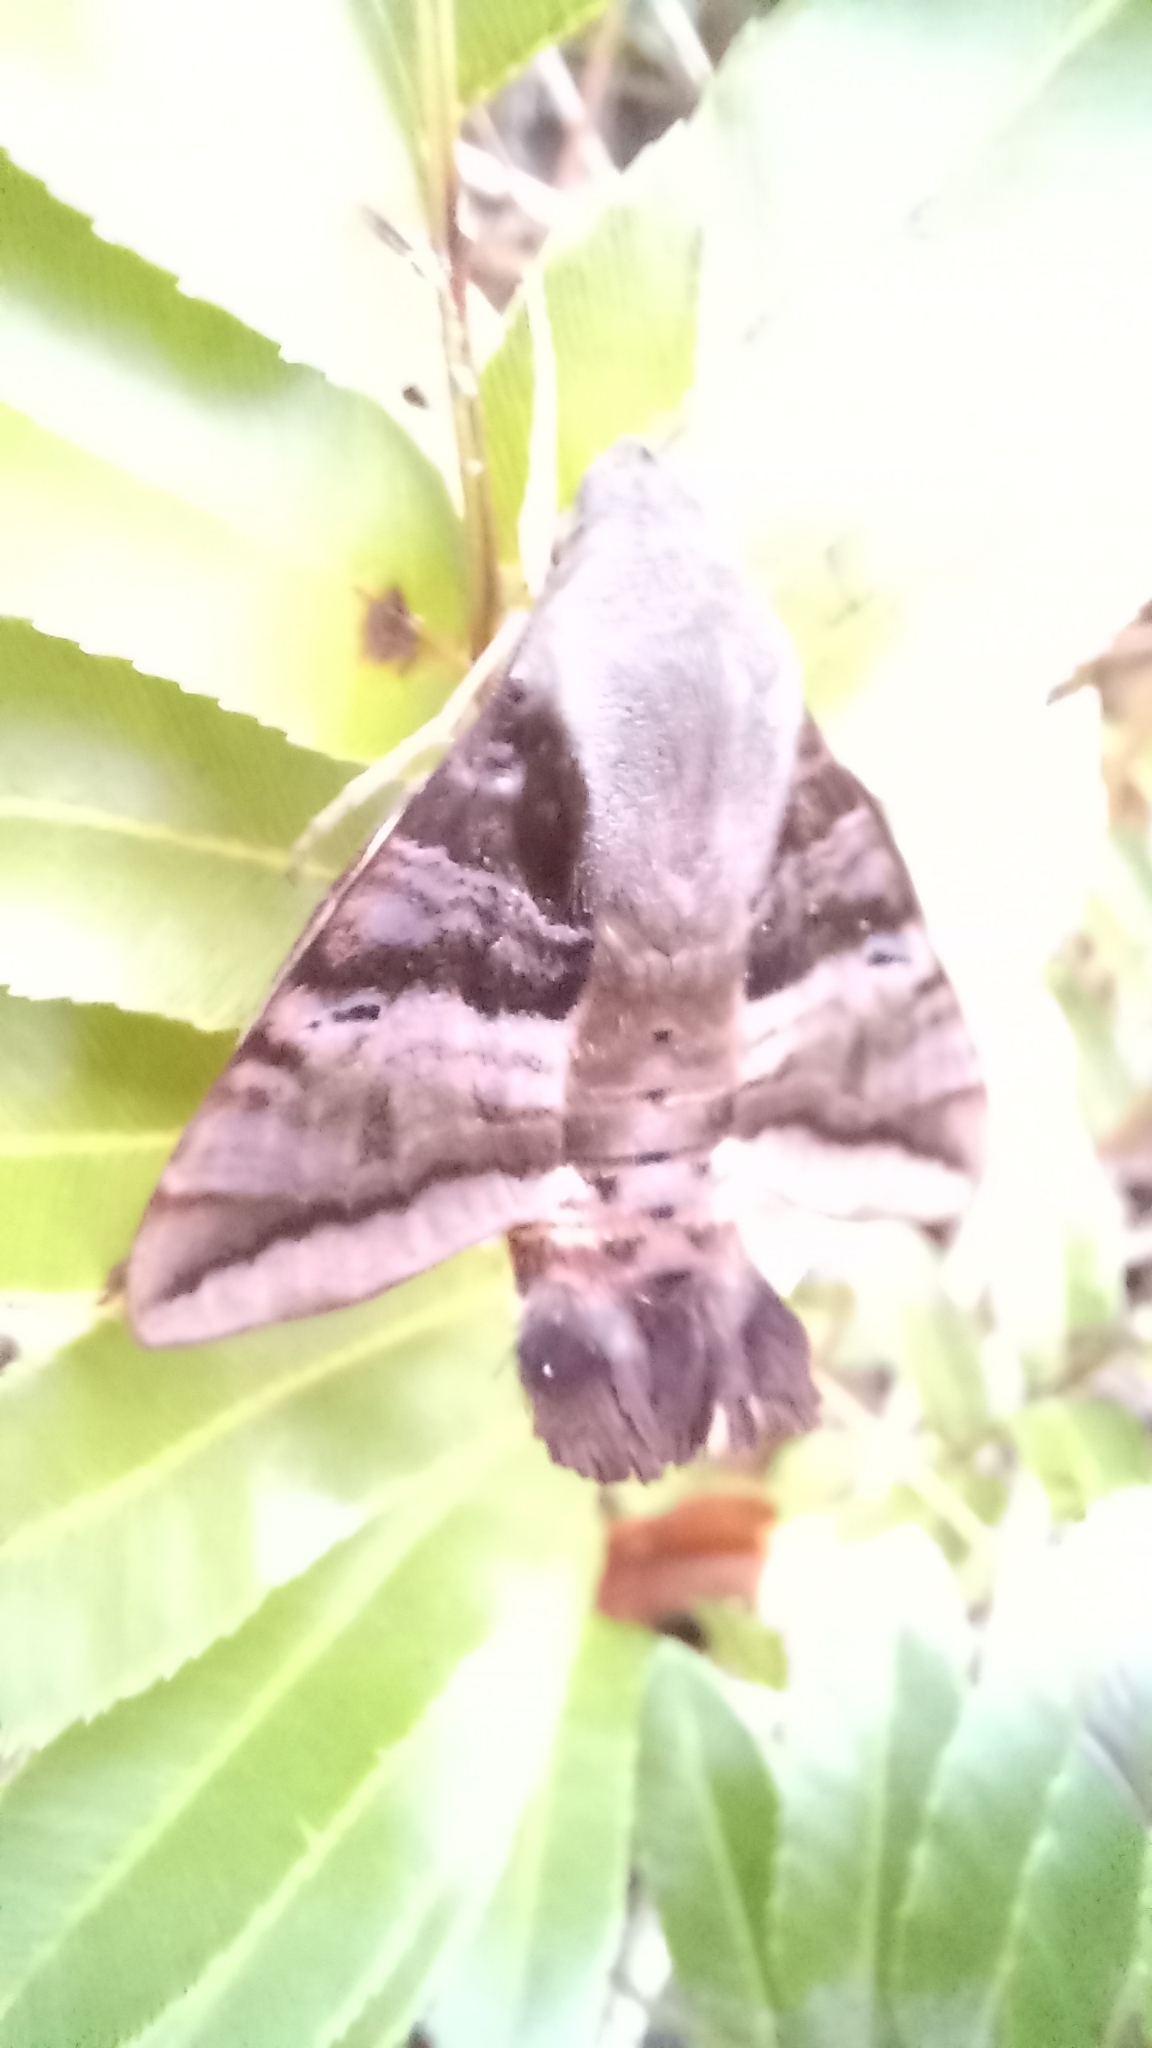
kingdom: Animalia
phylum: Arthropoda
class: Insecta
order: Lepidoptera
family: Sphingidae
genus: Aellopos
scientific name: Aellopos ceculus
